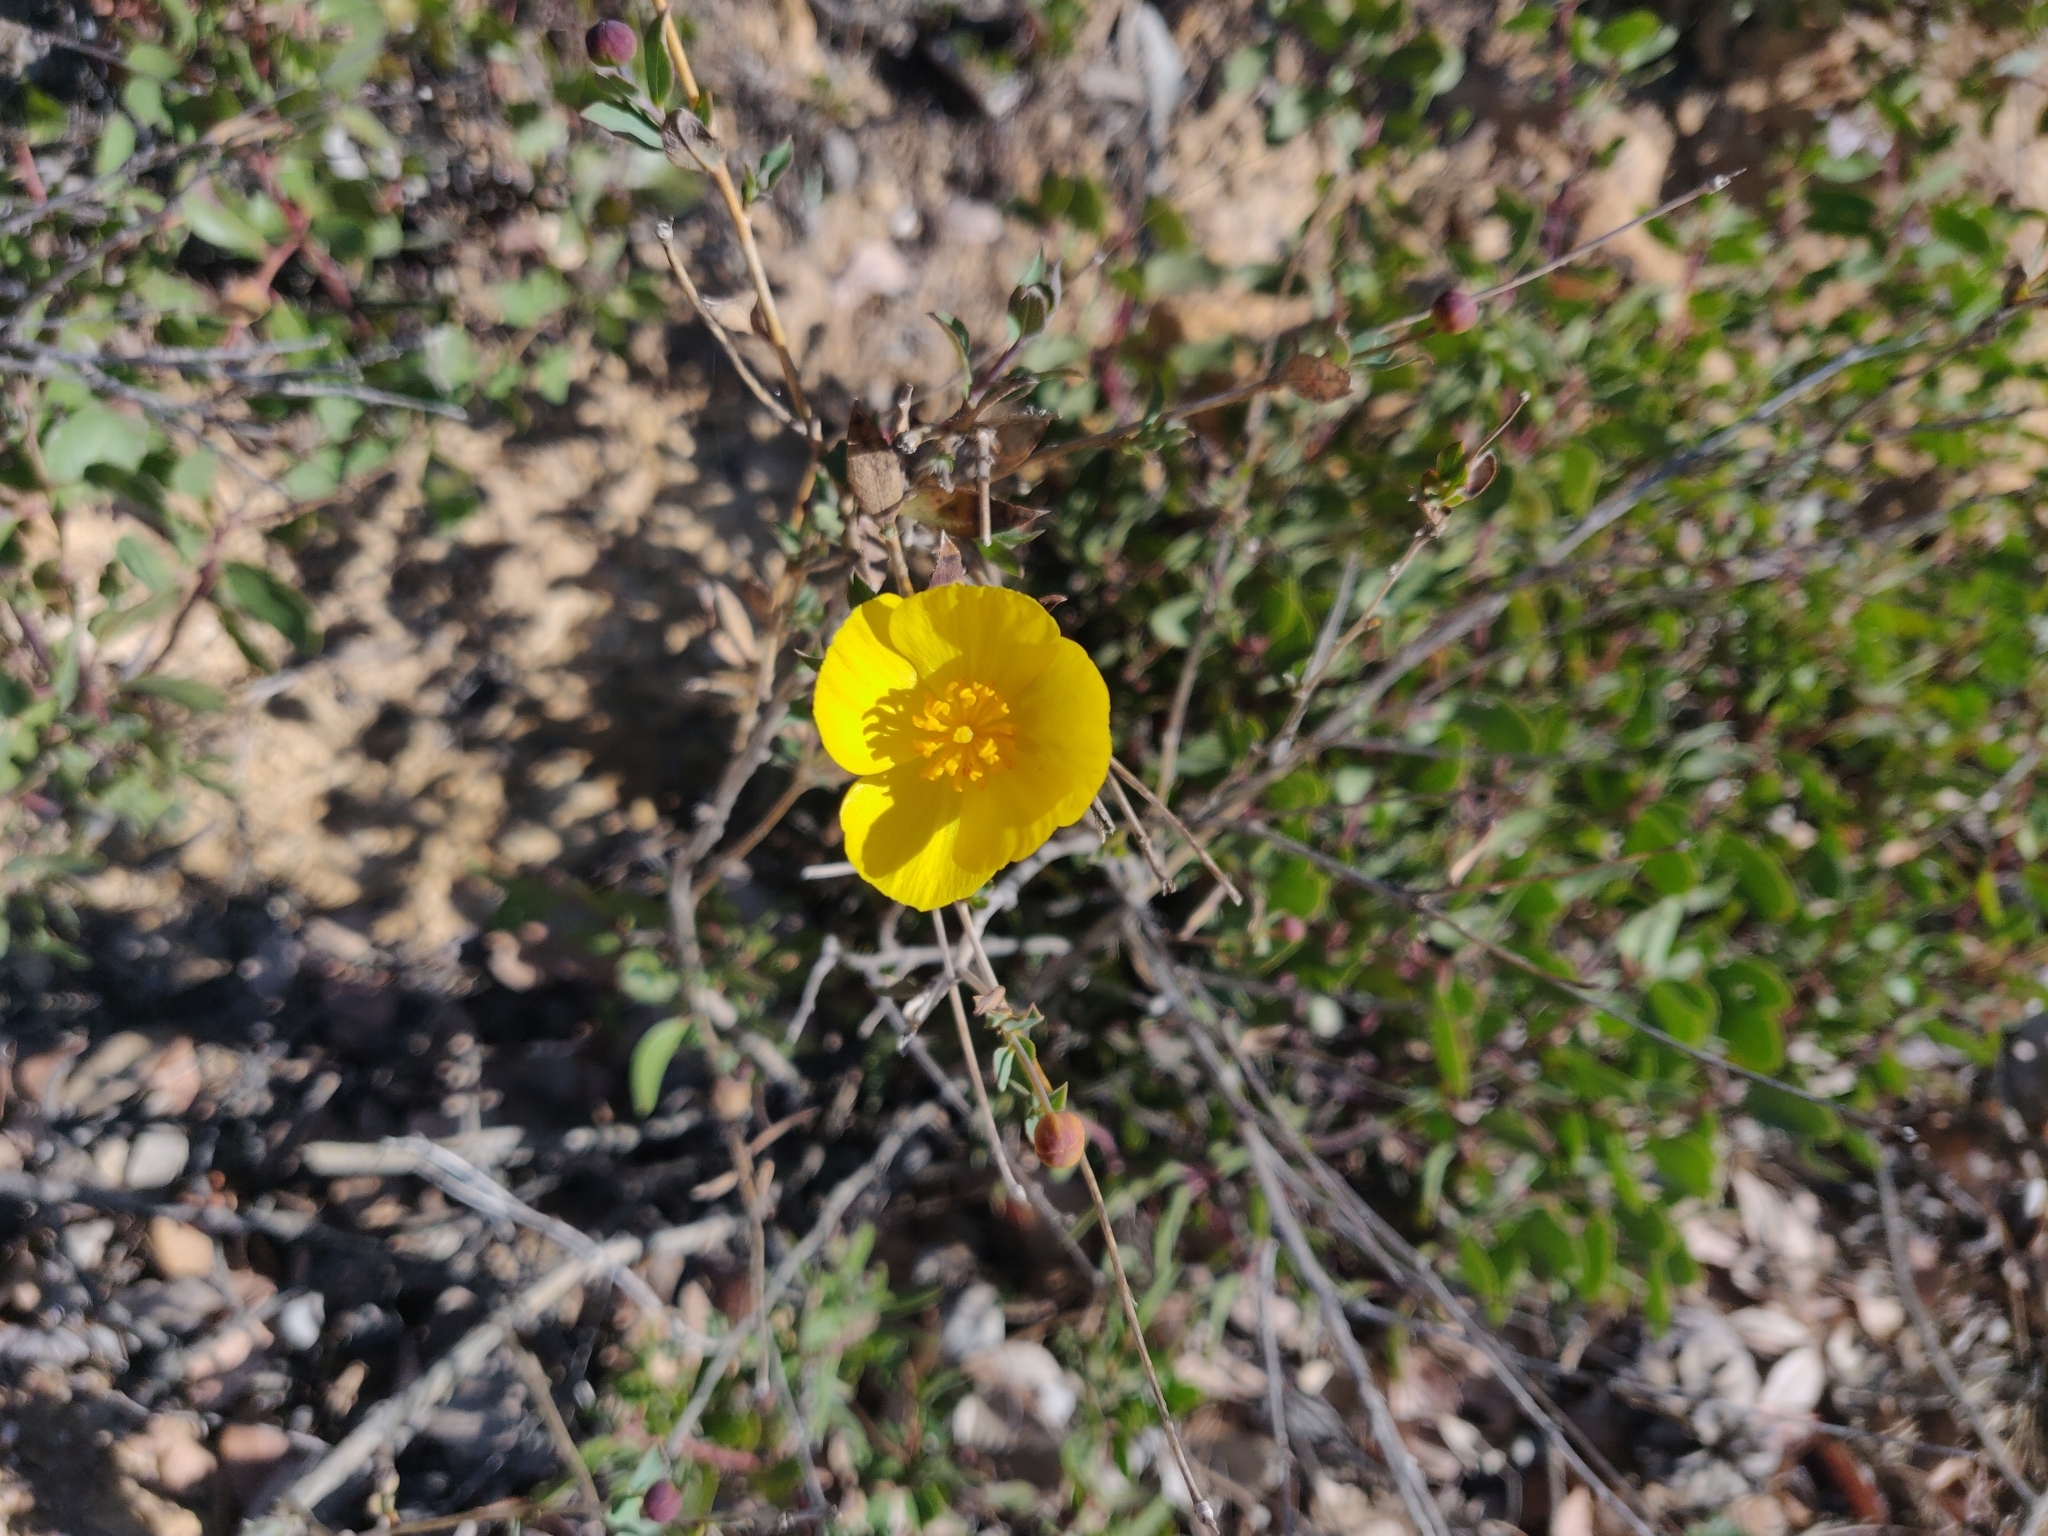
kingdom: Plantae
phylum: Tracheophyta
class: Magnoliopsida
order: Ranunculales
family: Papaveraceae
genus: Dendromecon
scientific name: Dendromecon rigida
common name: Tree poppy
